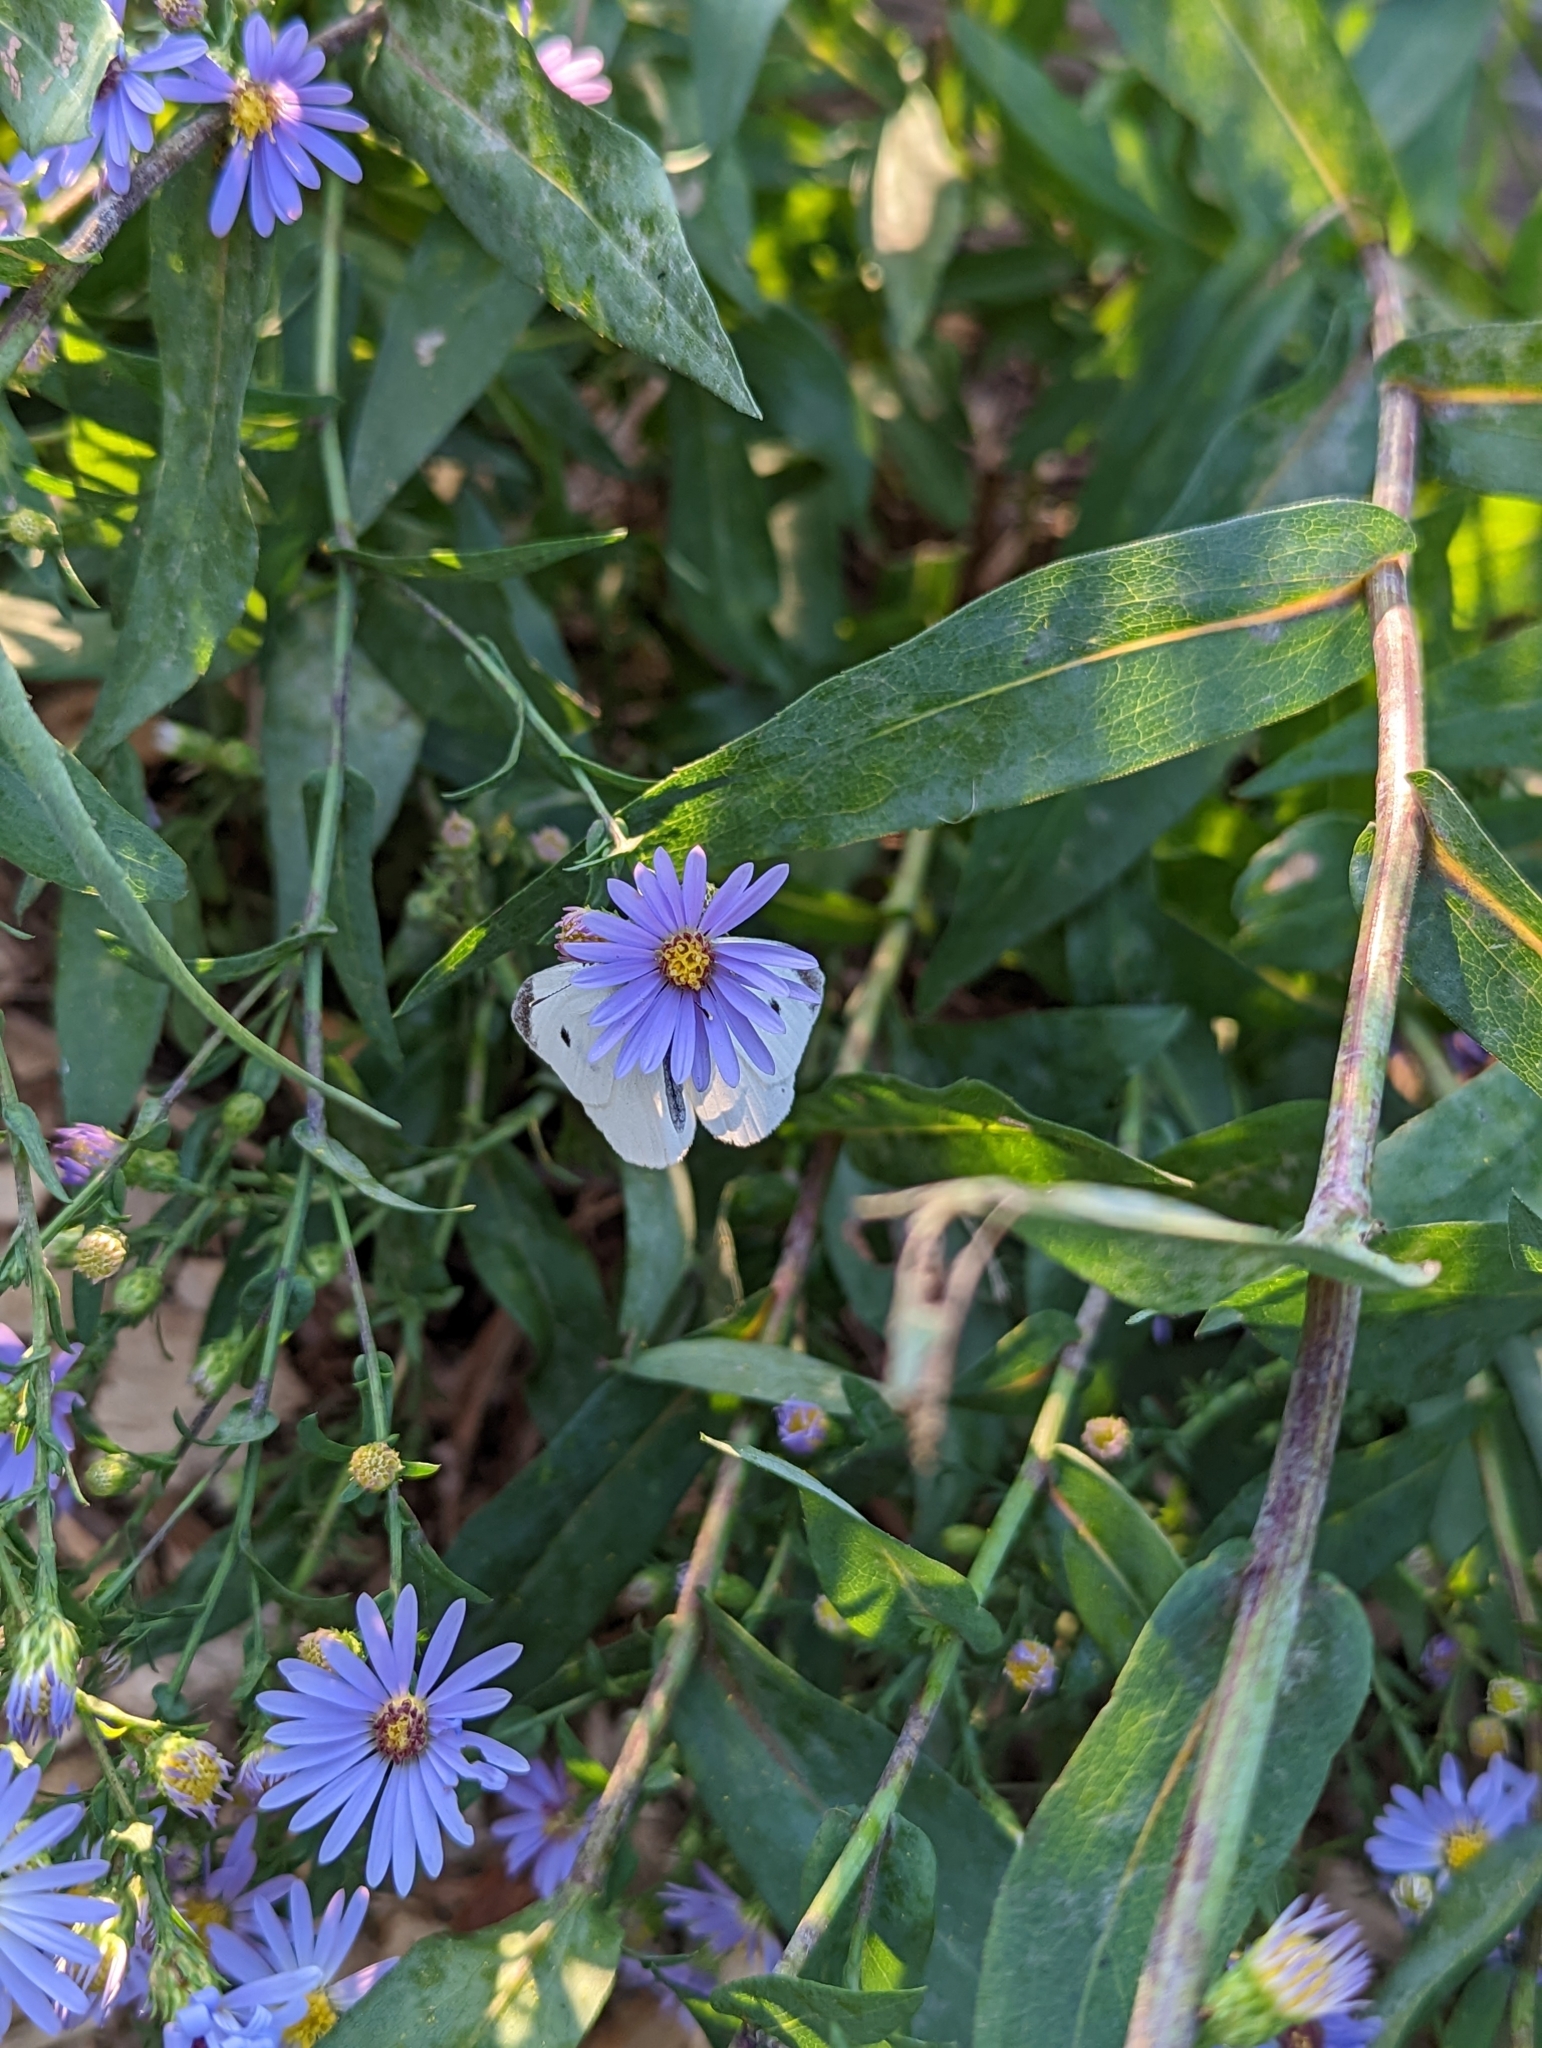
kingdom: Animalia
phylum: Arthropoda
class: Insecta
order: Lepidoptera
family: Pieridae
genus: Pieris
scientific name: Pieris rapae
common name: Small white
